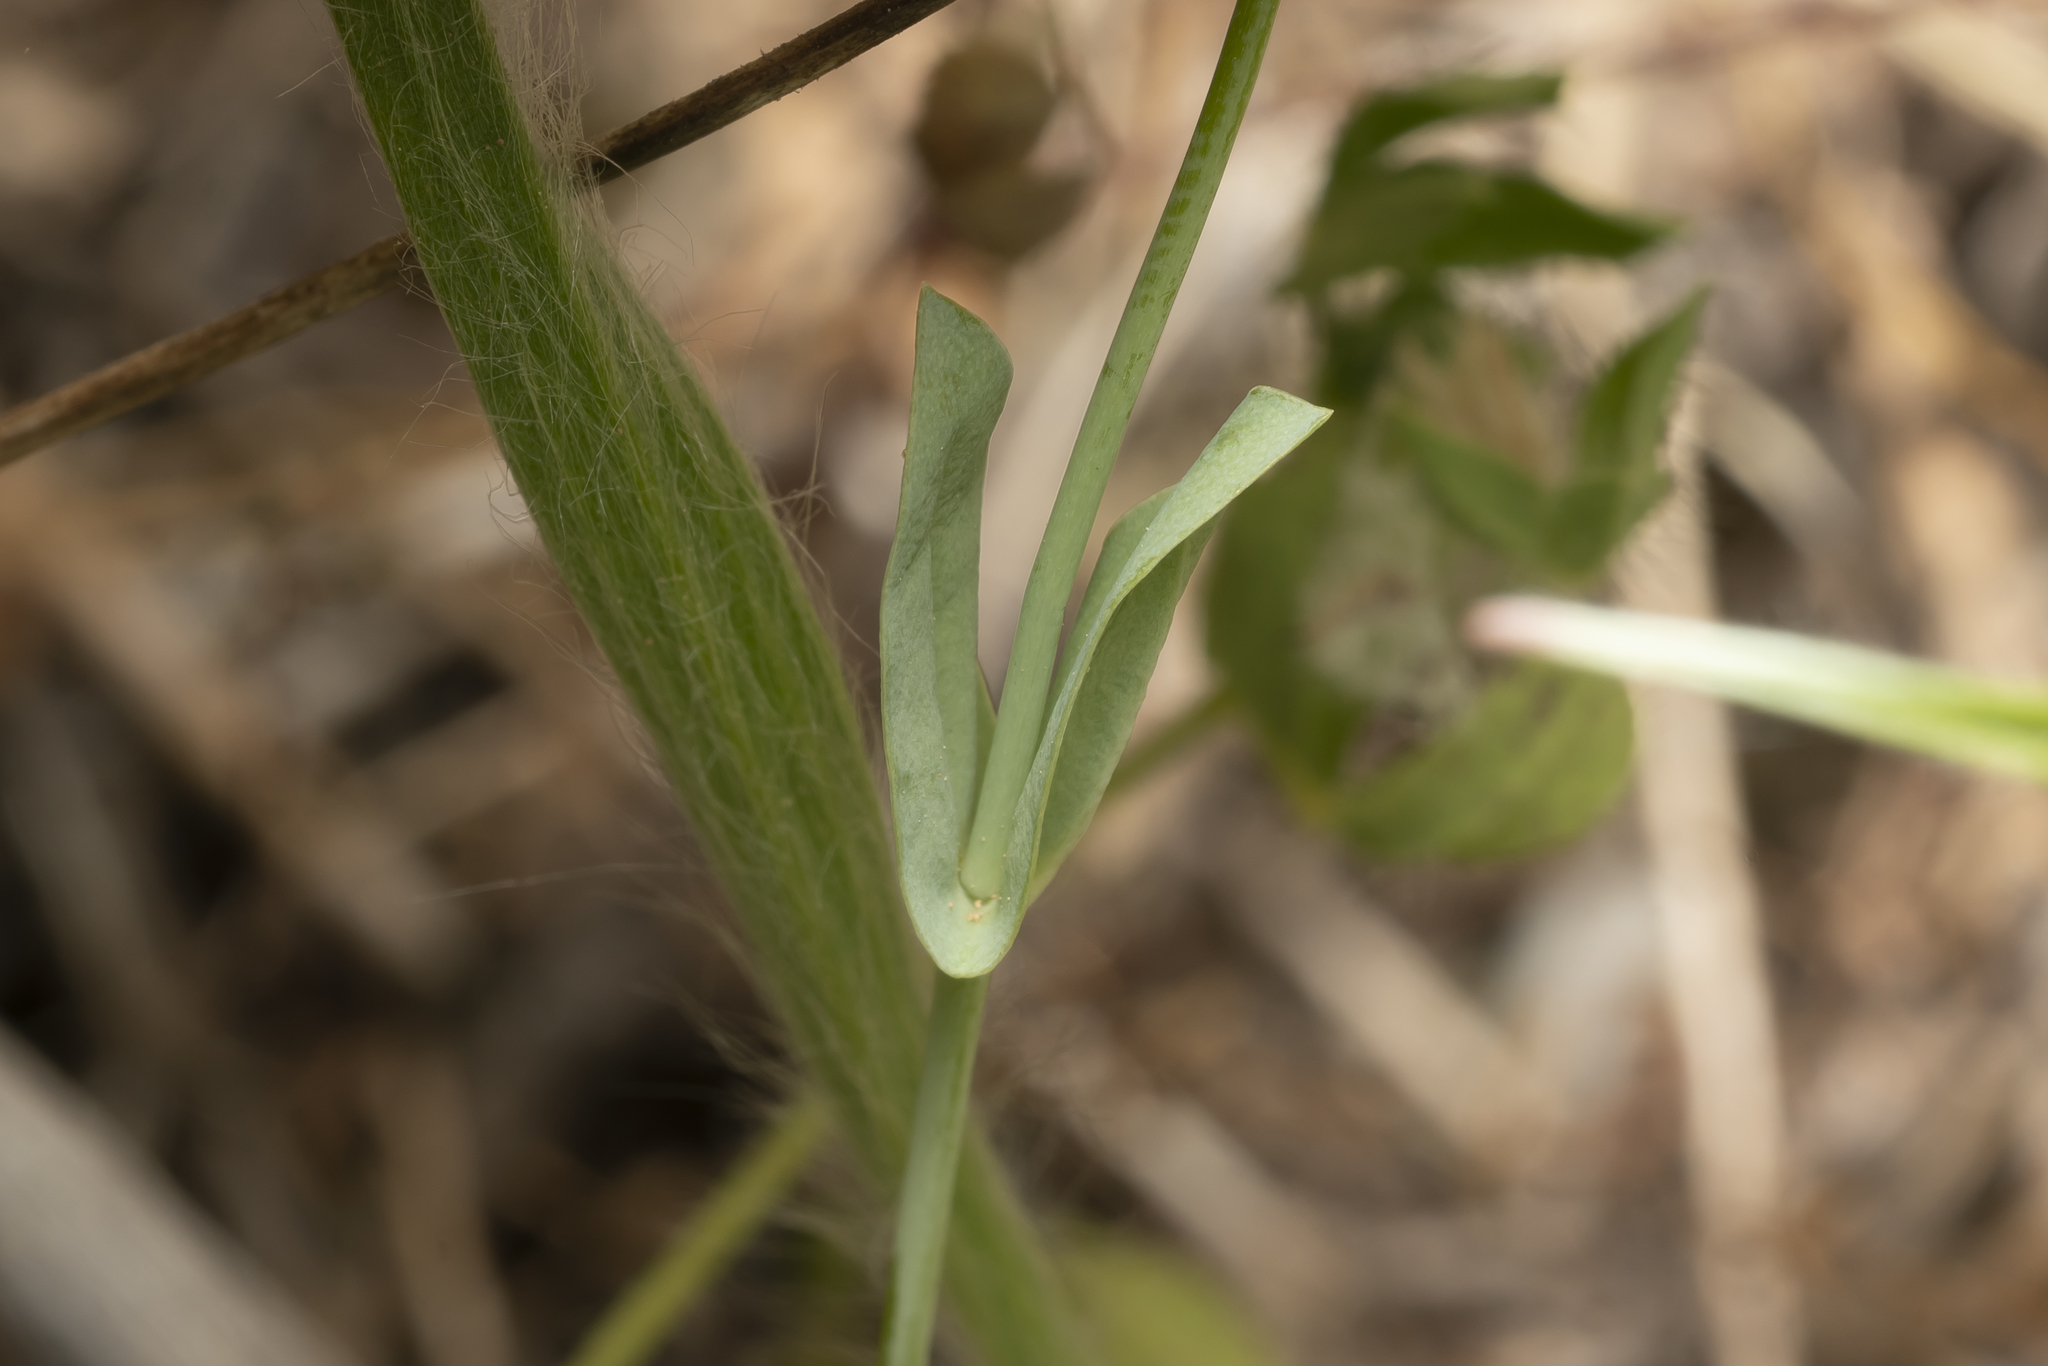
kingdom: Plantae
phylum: Tracheophyta
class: Magnoliopsida
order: Gentianales
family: Gentianaceae
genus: Blackstonia
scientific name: Blackstonia acuminata
